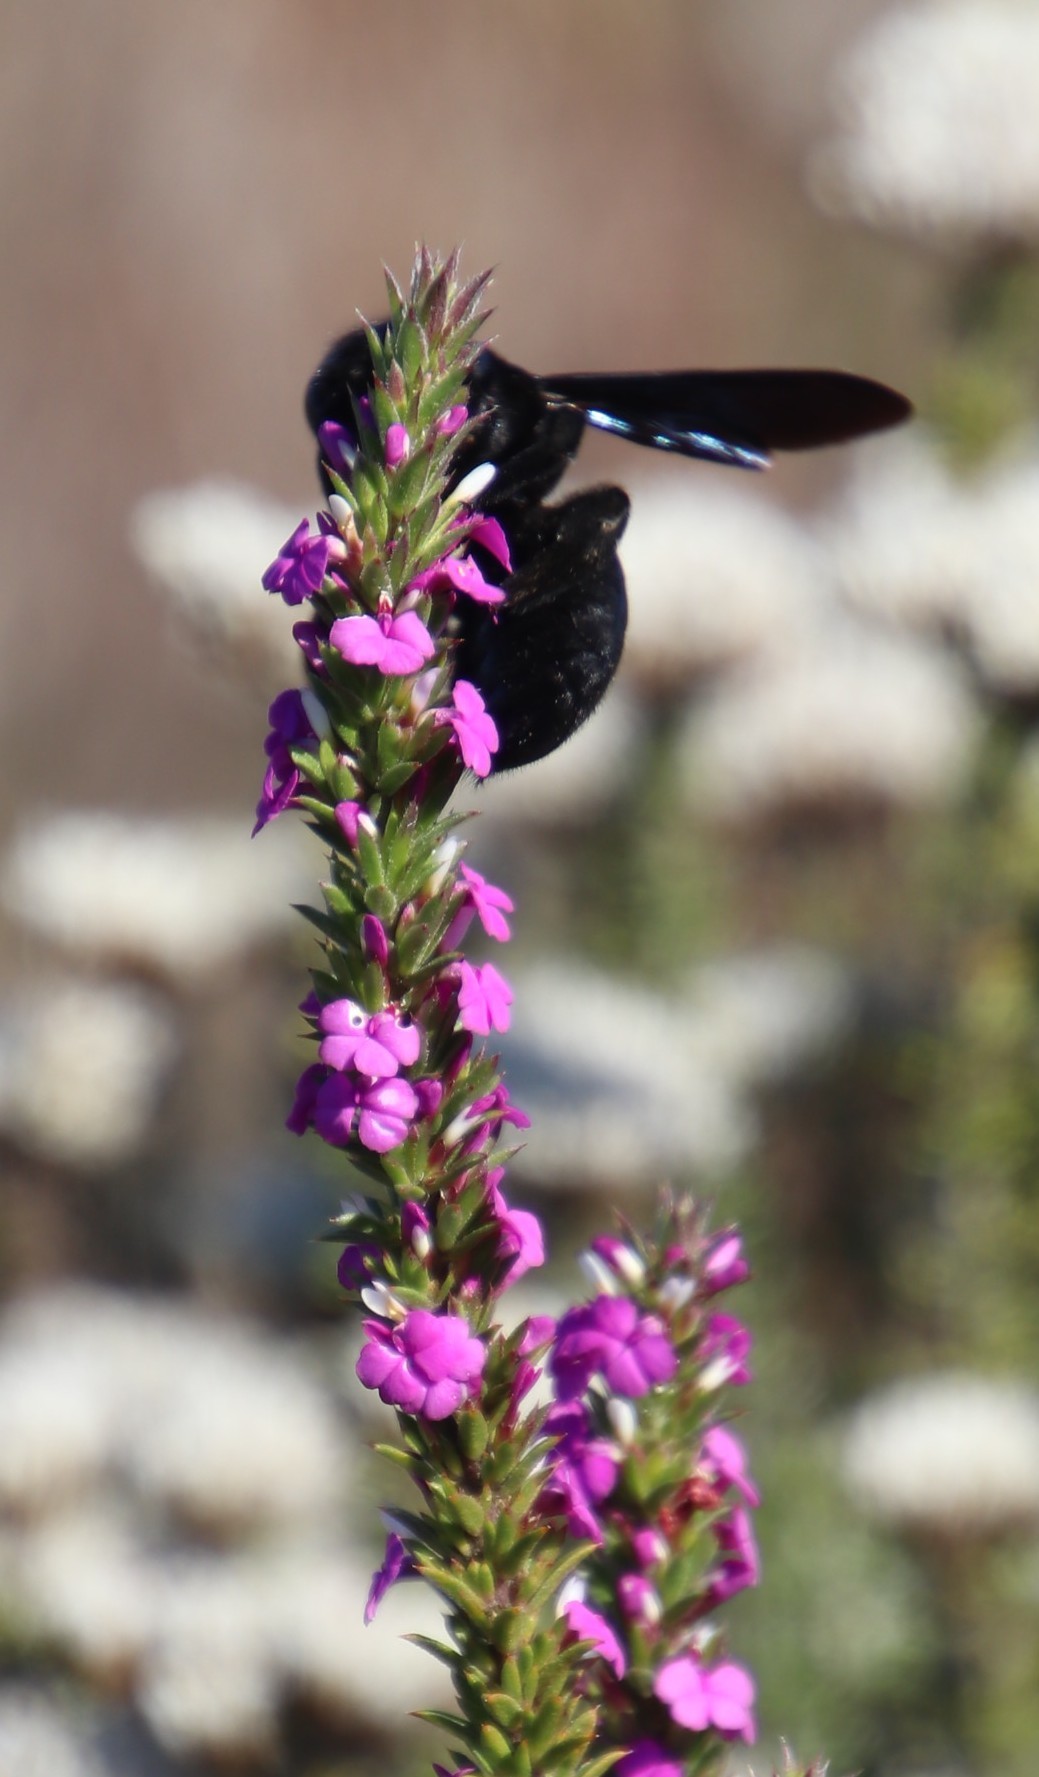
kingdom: Plantae
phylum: Tracheophyta
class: Magnoliopsida
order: Fabales
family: Polygalaceae
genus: Muraltia
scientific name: Muraltia heisteria
